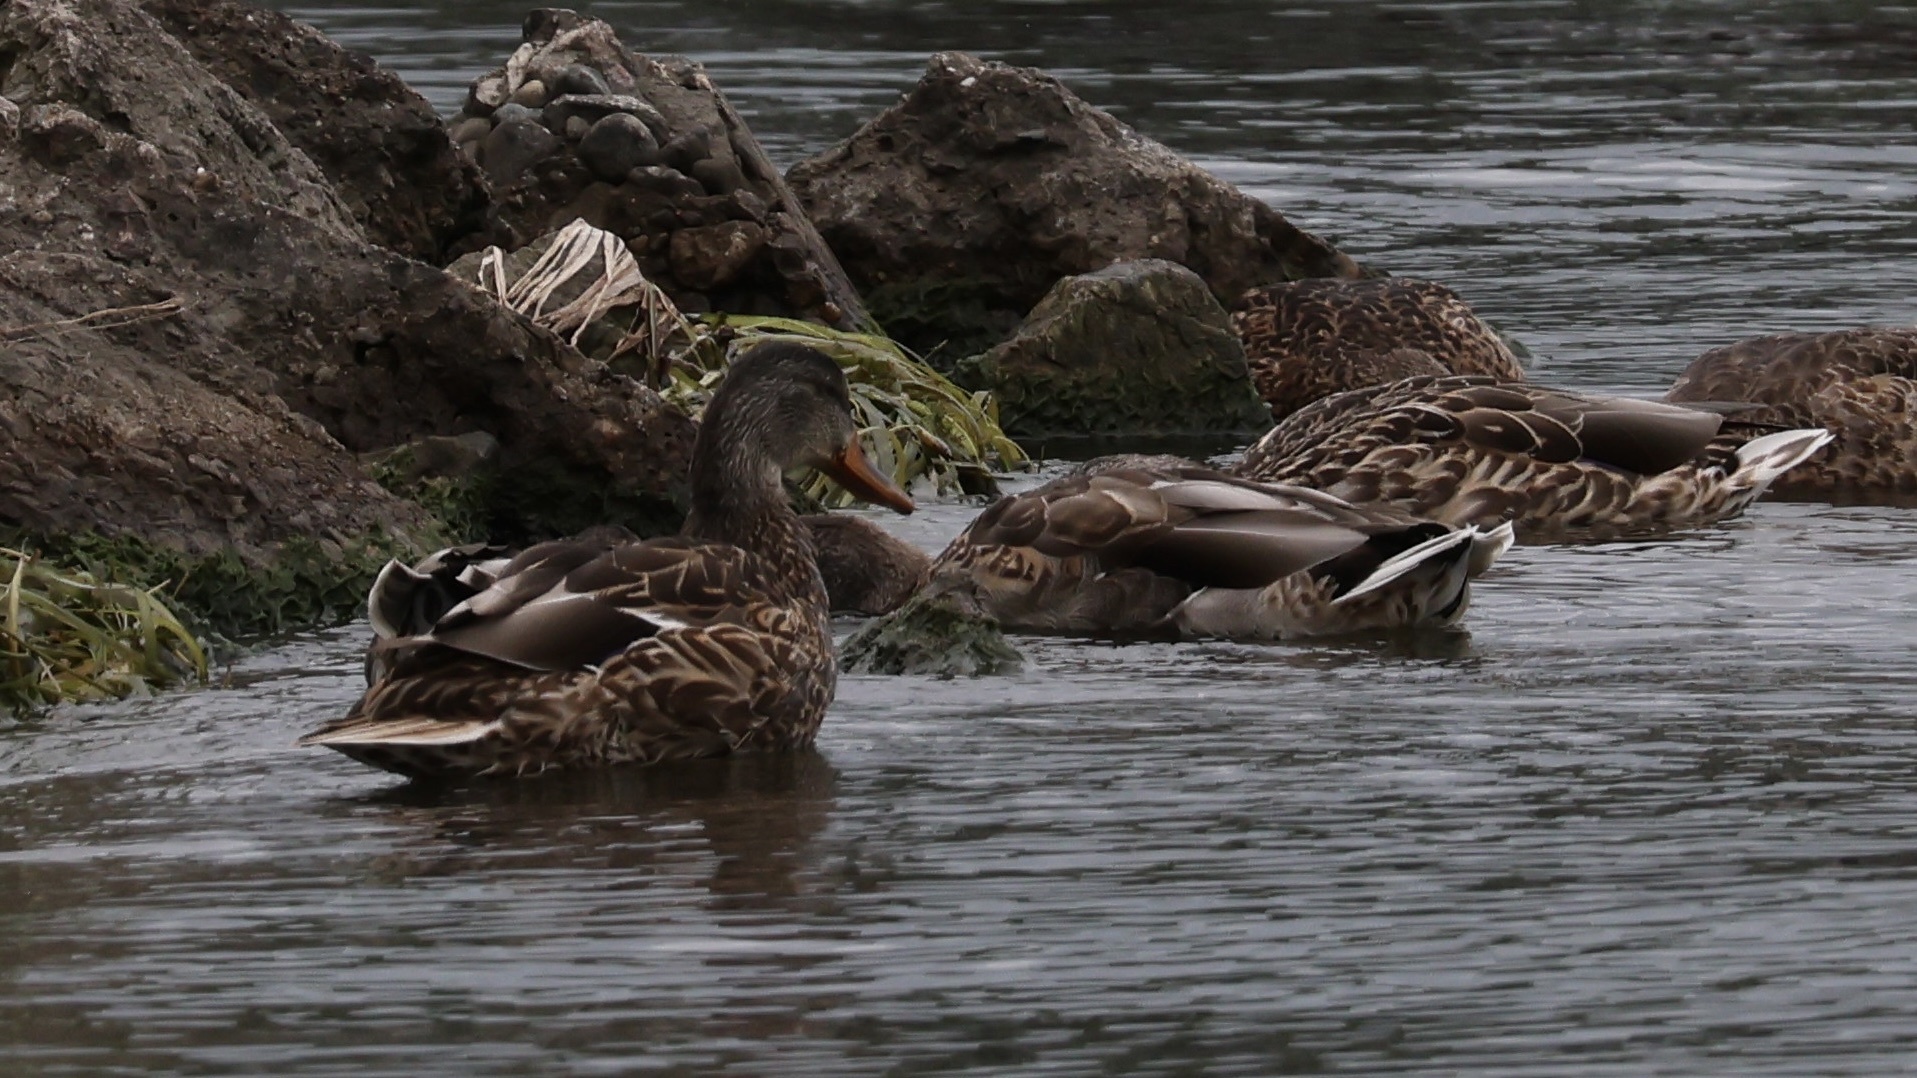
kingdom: Animalia
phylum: Chordata
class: Aves
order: Anseriformes
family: Anatidae
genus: Anas
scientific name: Anas platyrhynchos
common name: Mallard
